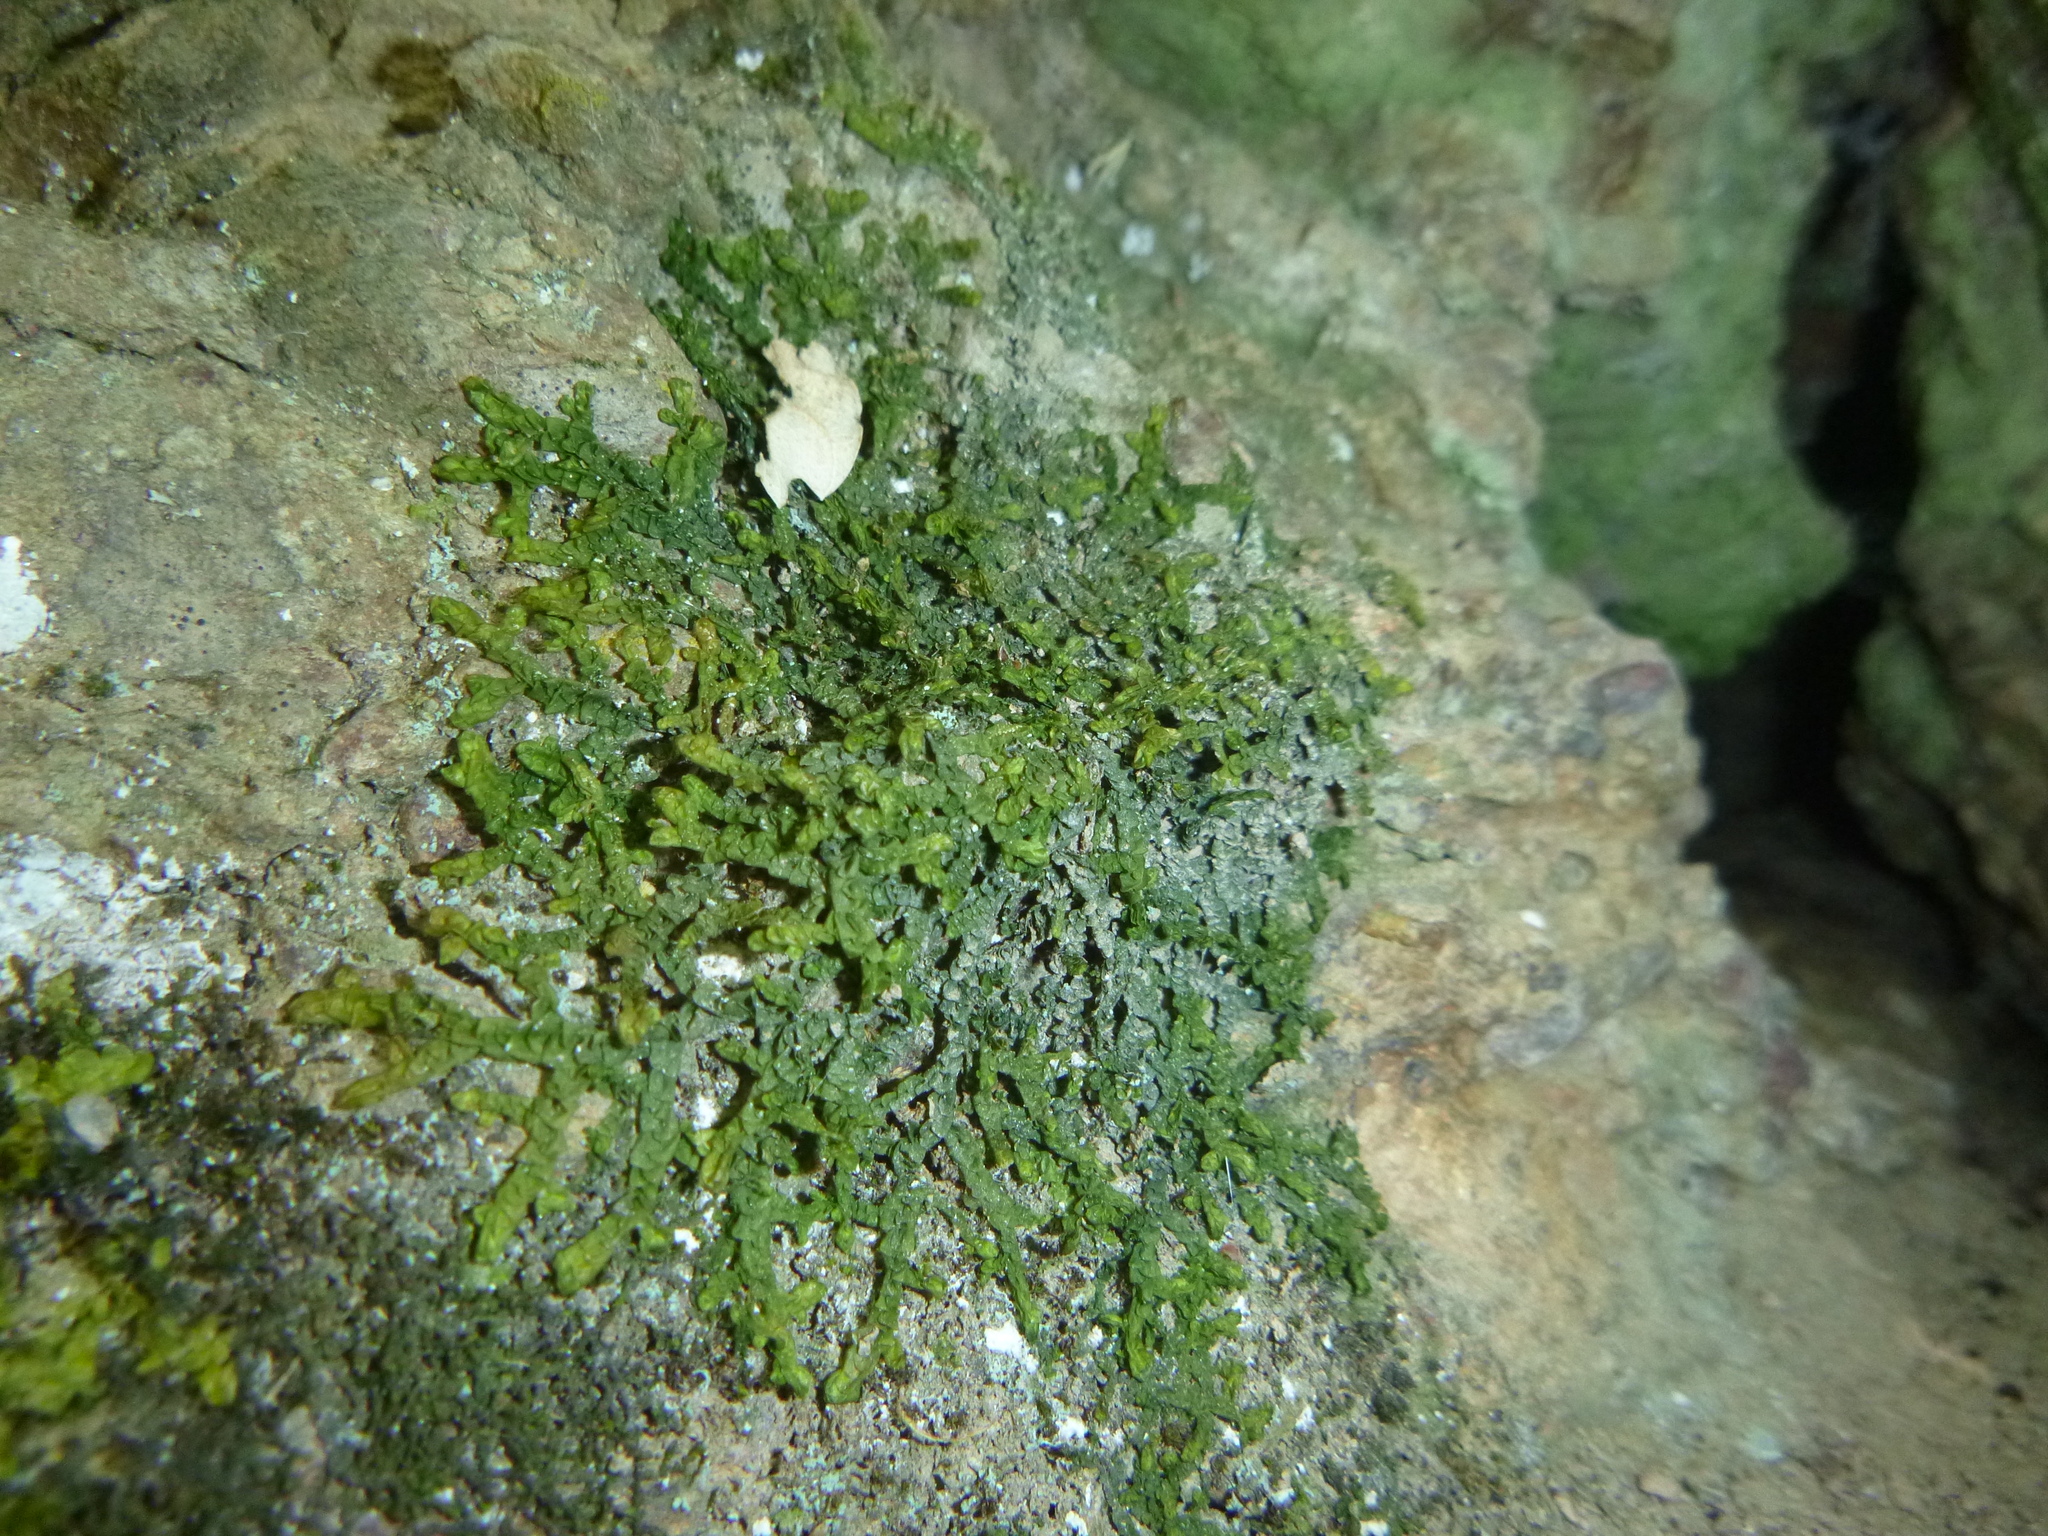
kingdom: Plantae
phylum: Marchantiophyta
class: Jungermanniopsida
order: Porellales
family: Porellaceae
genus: Porella
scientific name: Porella platyphylla
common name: Wall scalewort
